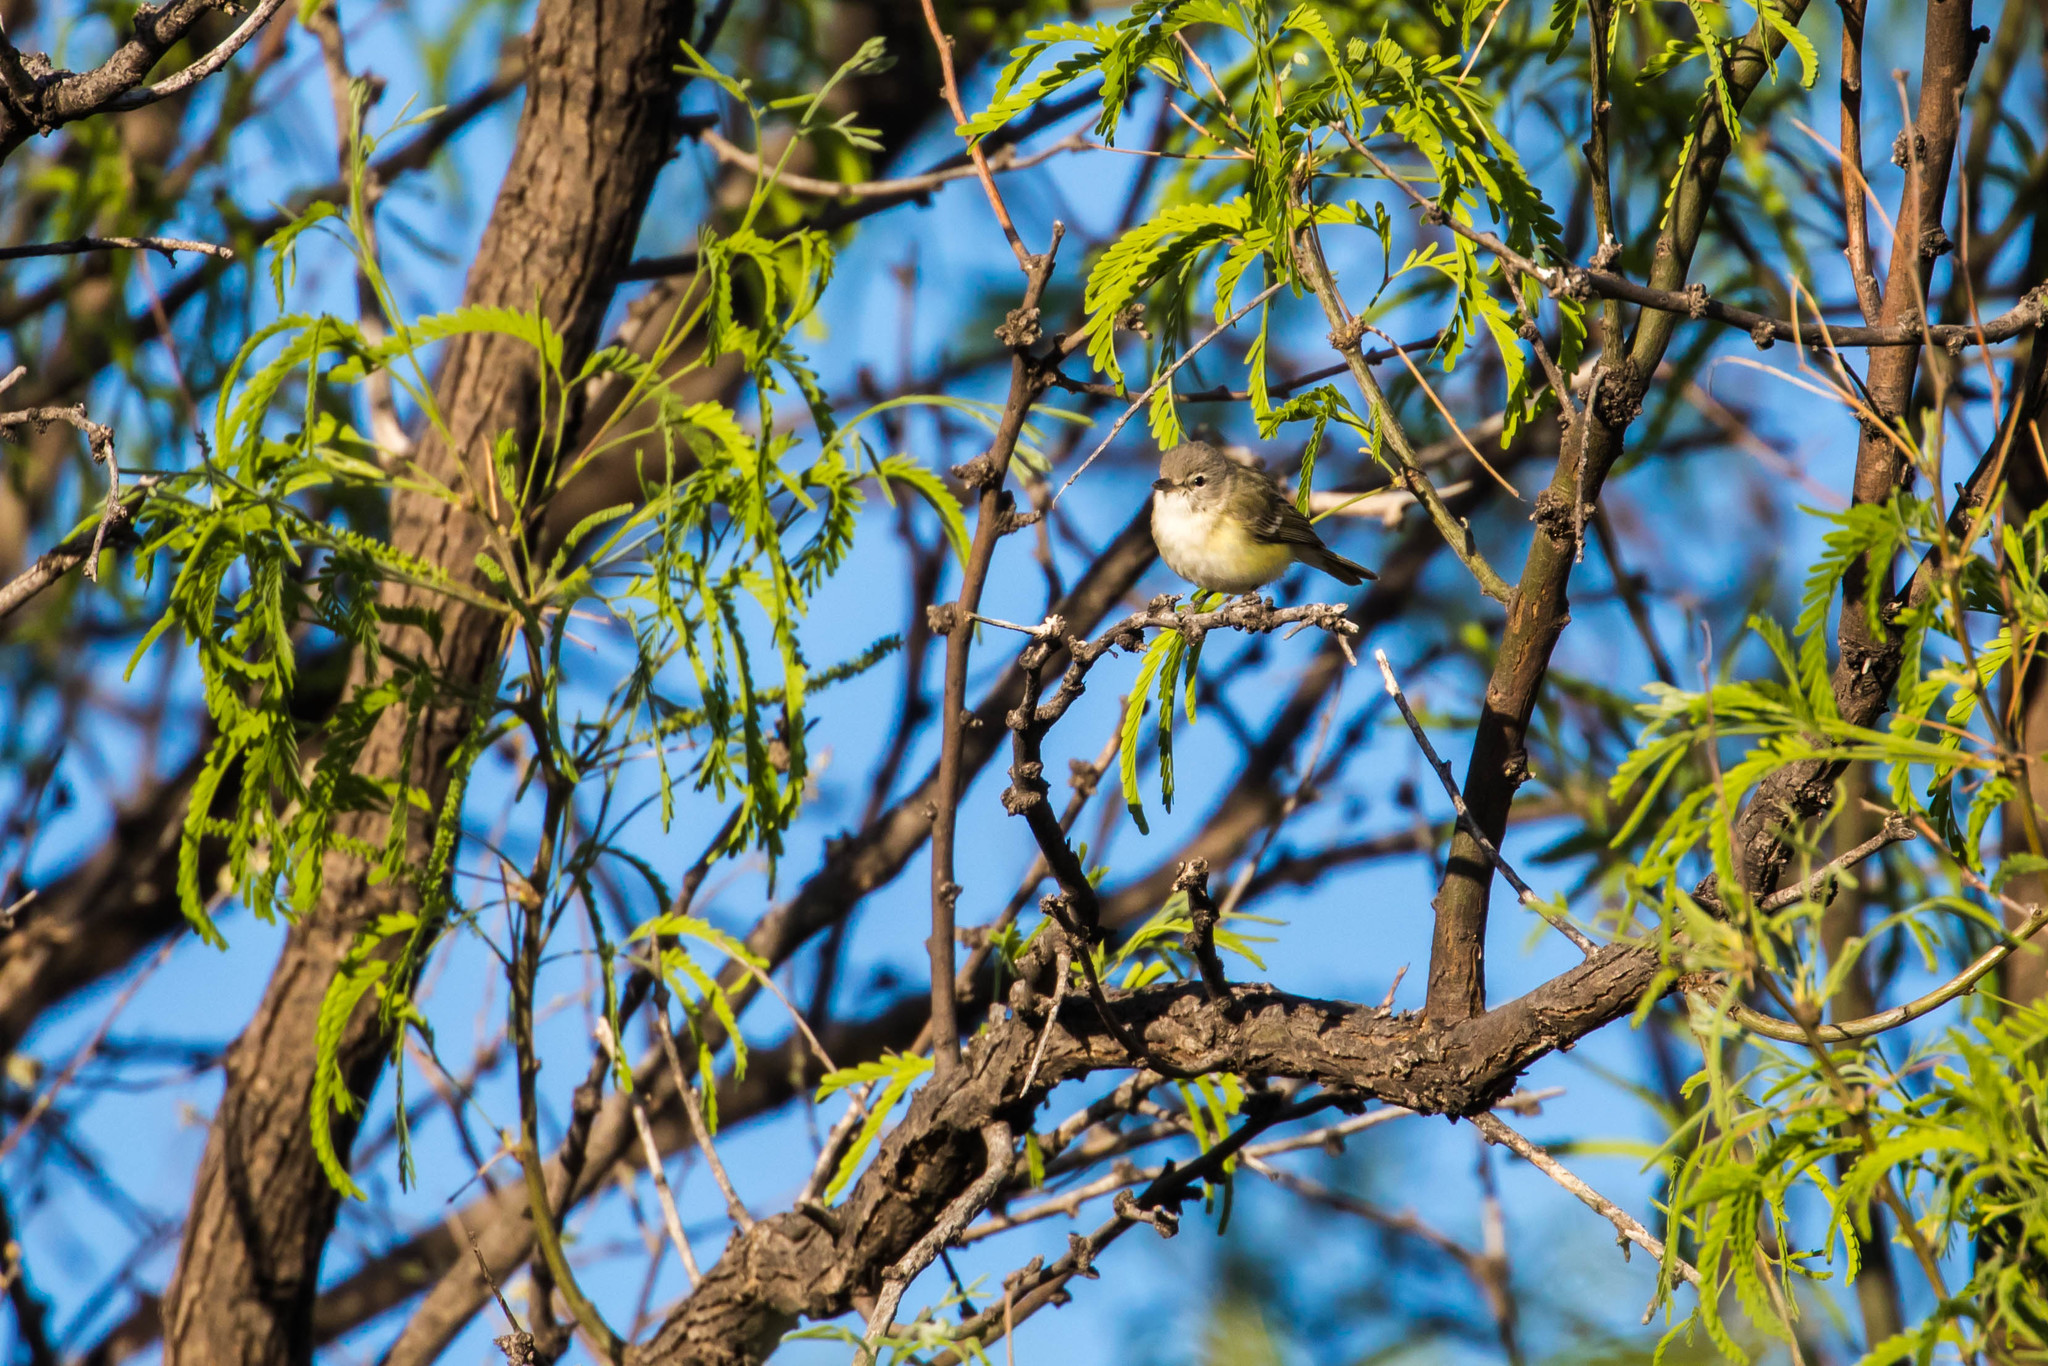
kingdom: Animalia
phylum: Chordata
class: Aves
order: Passeriformes
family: Vireonidae
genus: Vireo
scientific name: Vireo bellii
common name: Bell's vireo
